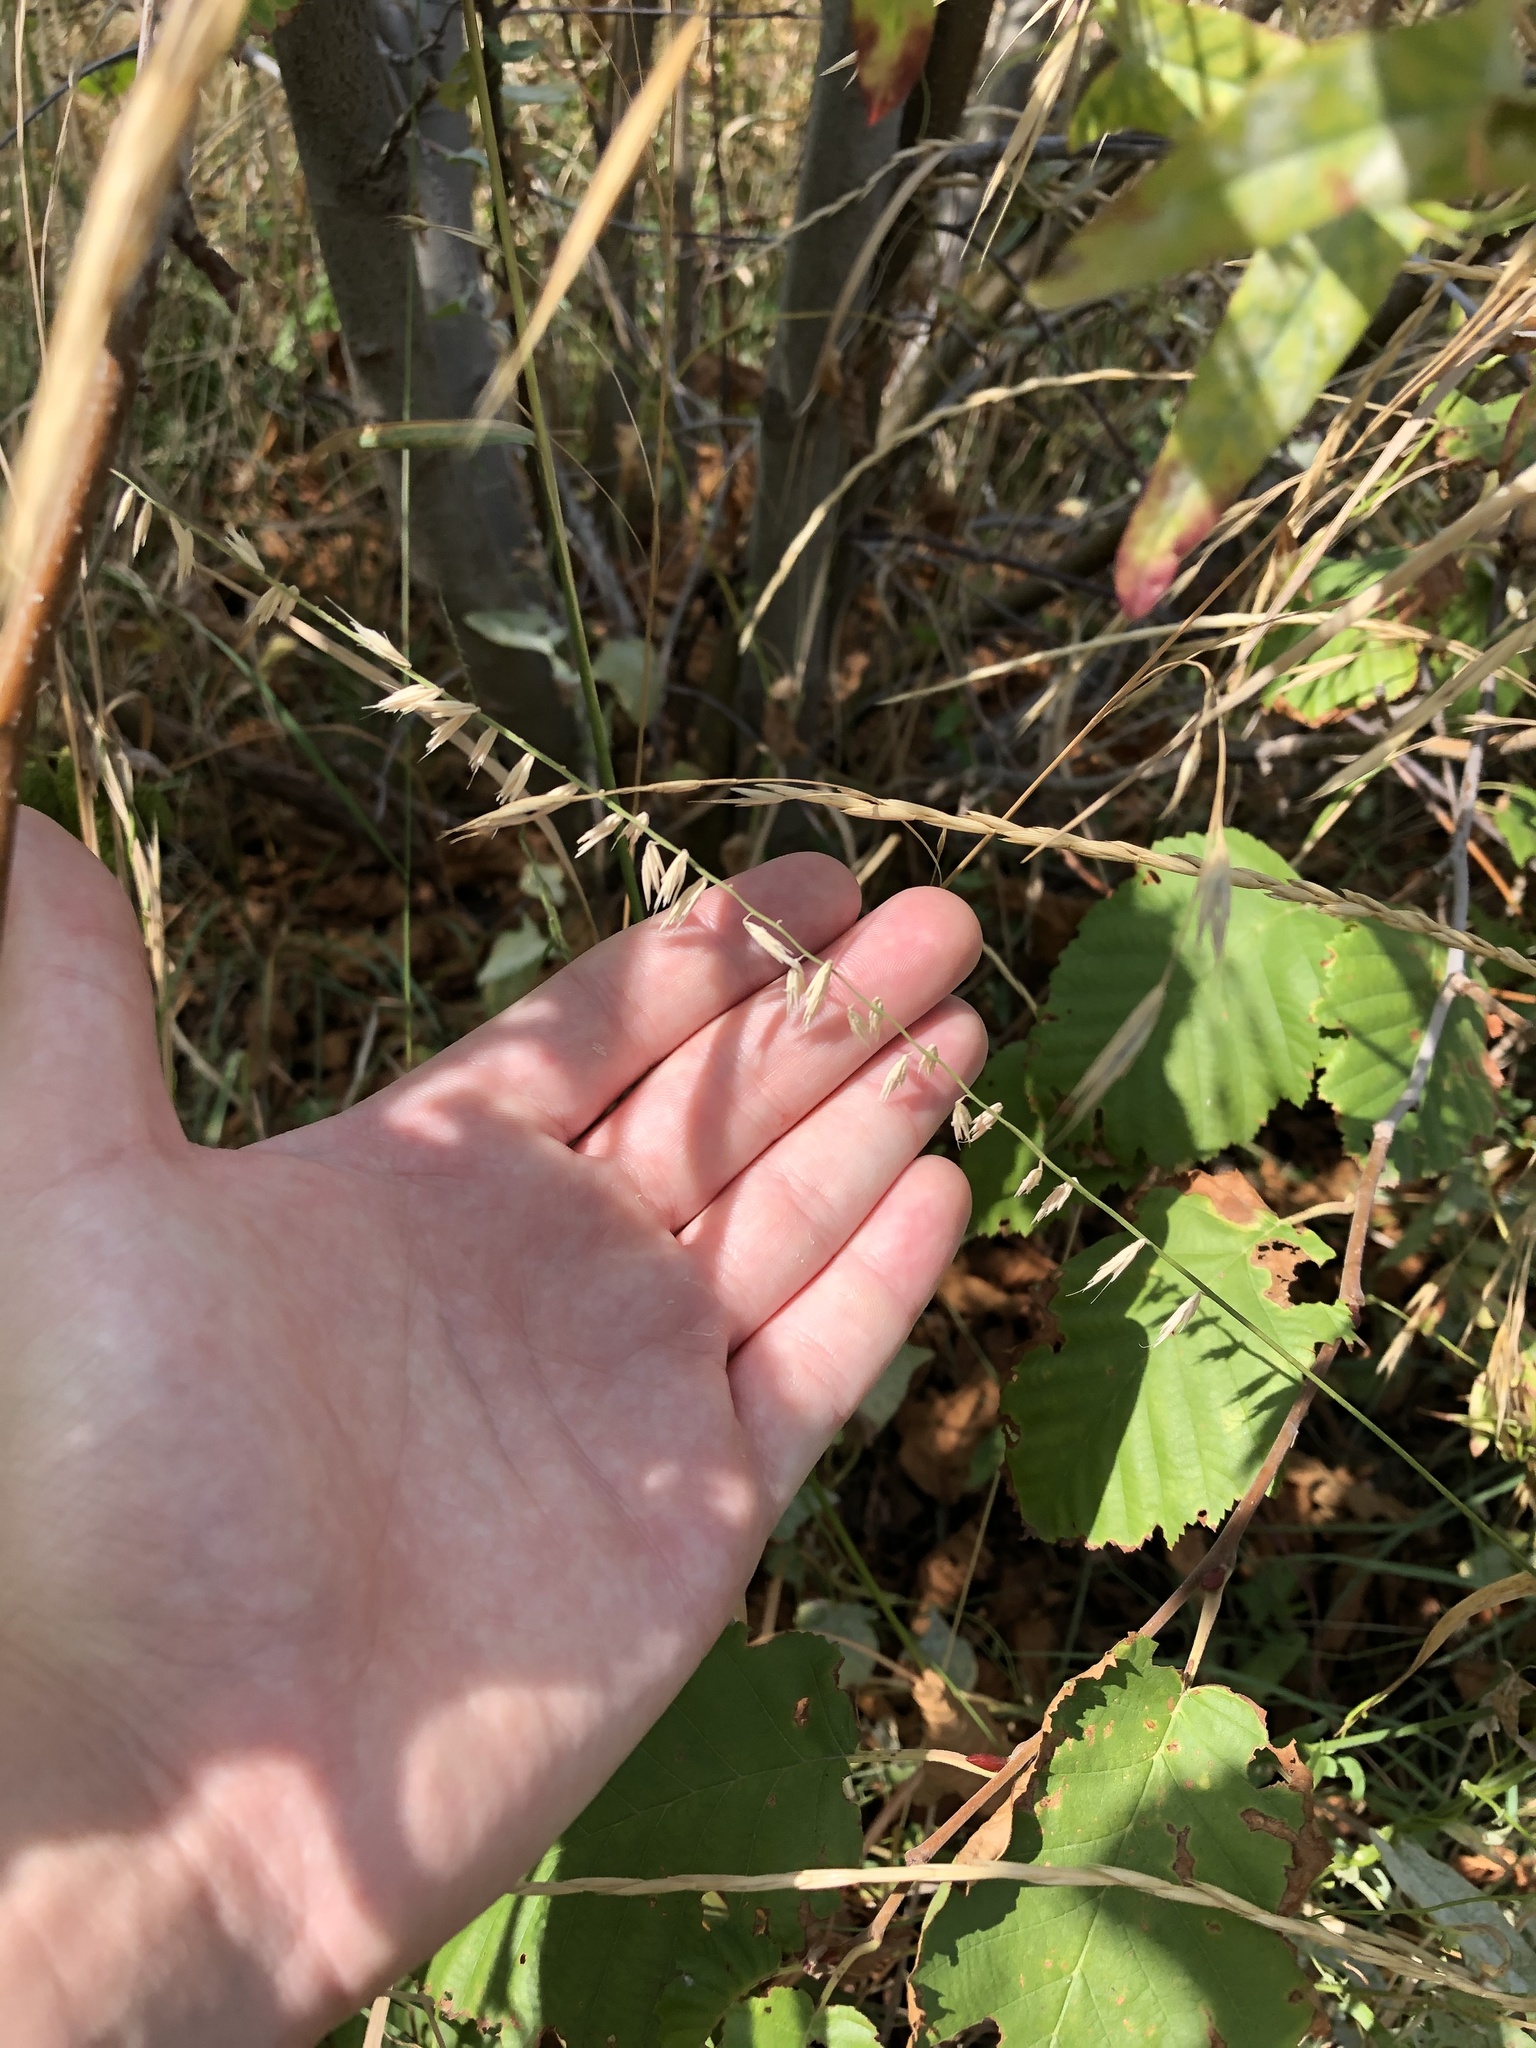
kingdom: Plantae
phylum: Tracheophyta
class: Liliopsida
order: Poales
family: Poaceae
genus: Bouteloua
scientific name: Bouteloua curtipendula
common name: Side-oats grama
